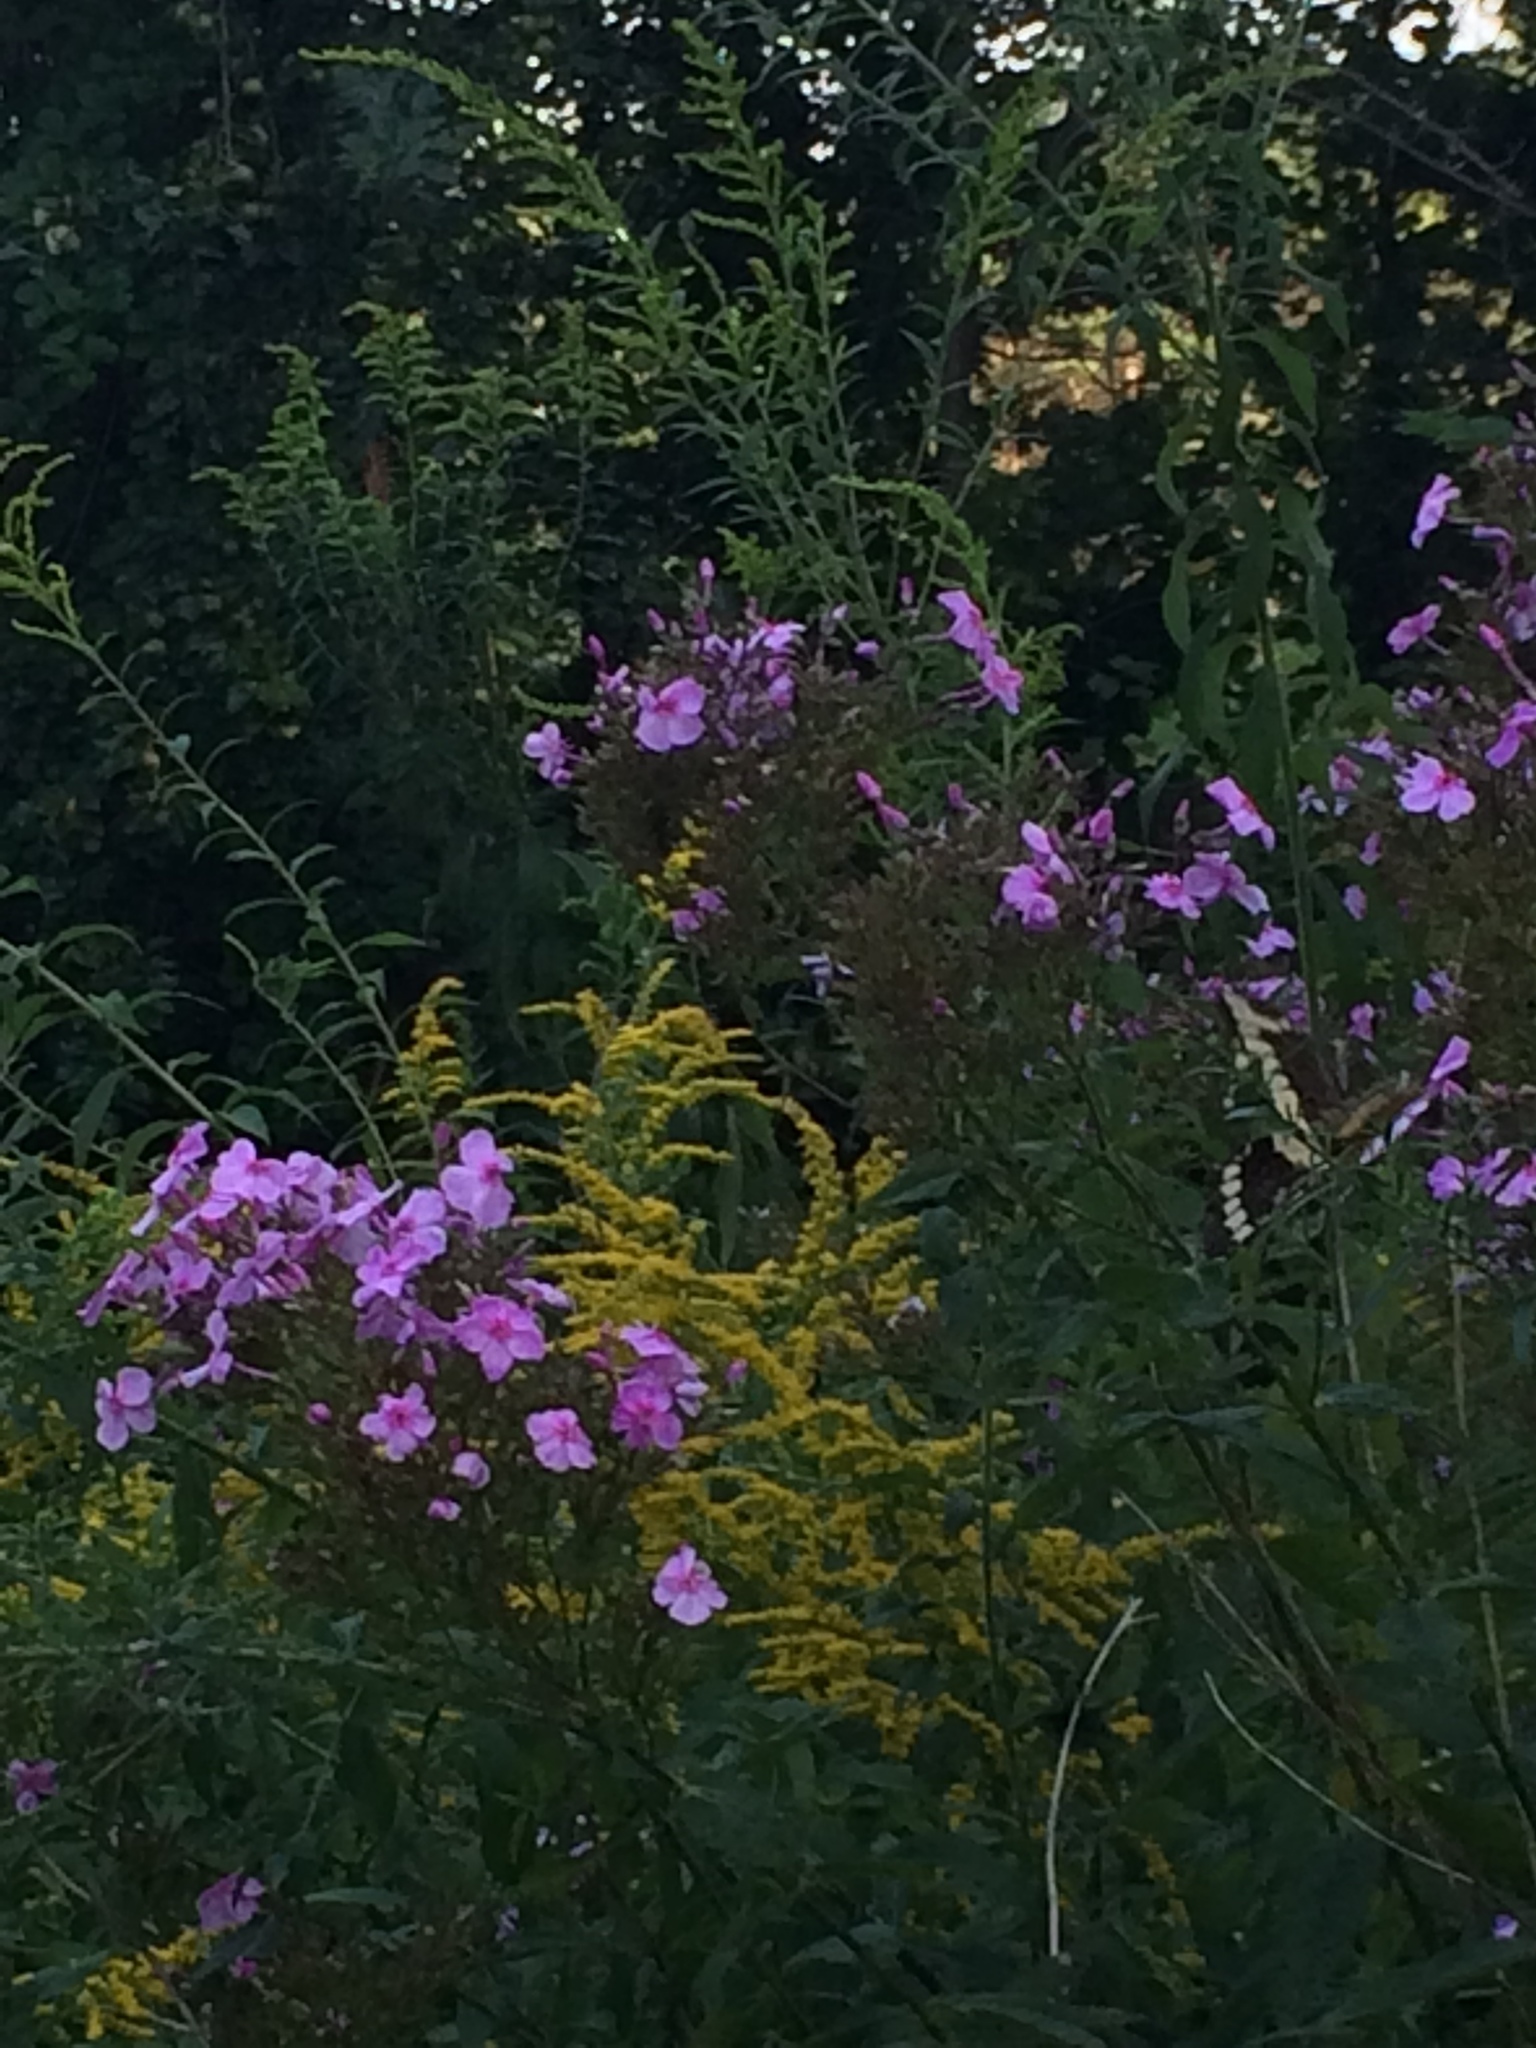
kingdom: Animalia
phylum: Arthropoda
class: Insecta
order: Lepidoptera
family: Papilionidae
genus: Papilio
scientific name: Papilio cresphontes
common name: Giant swallowtail
